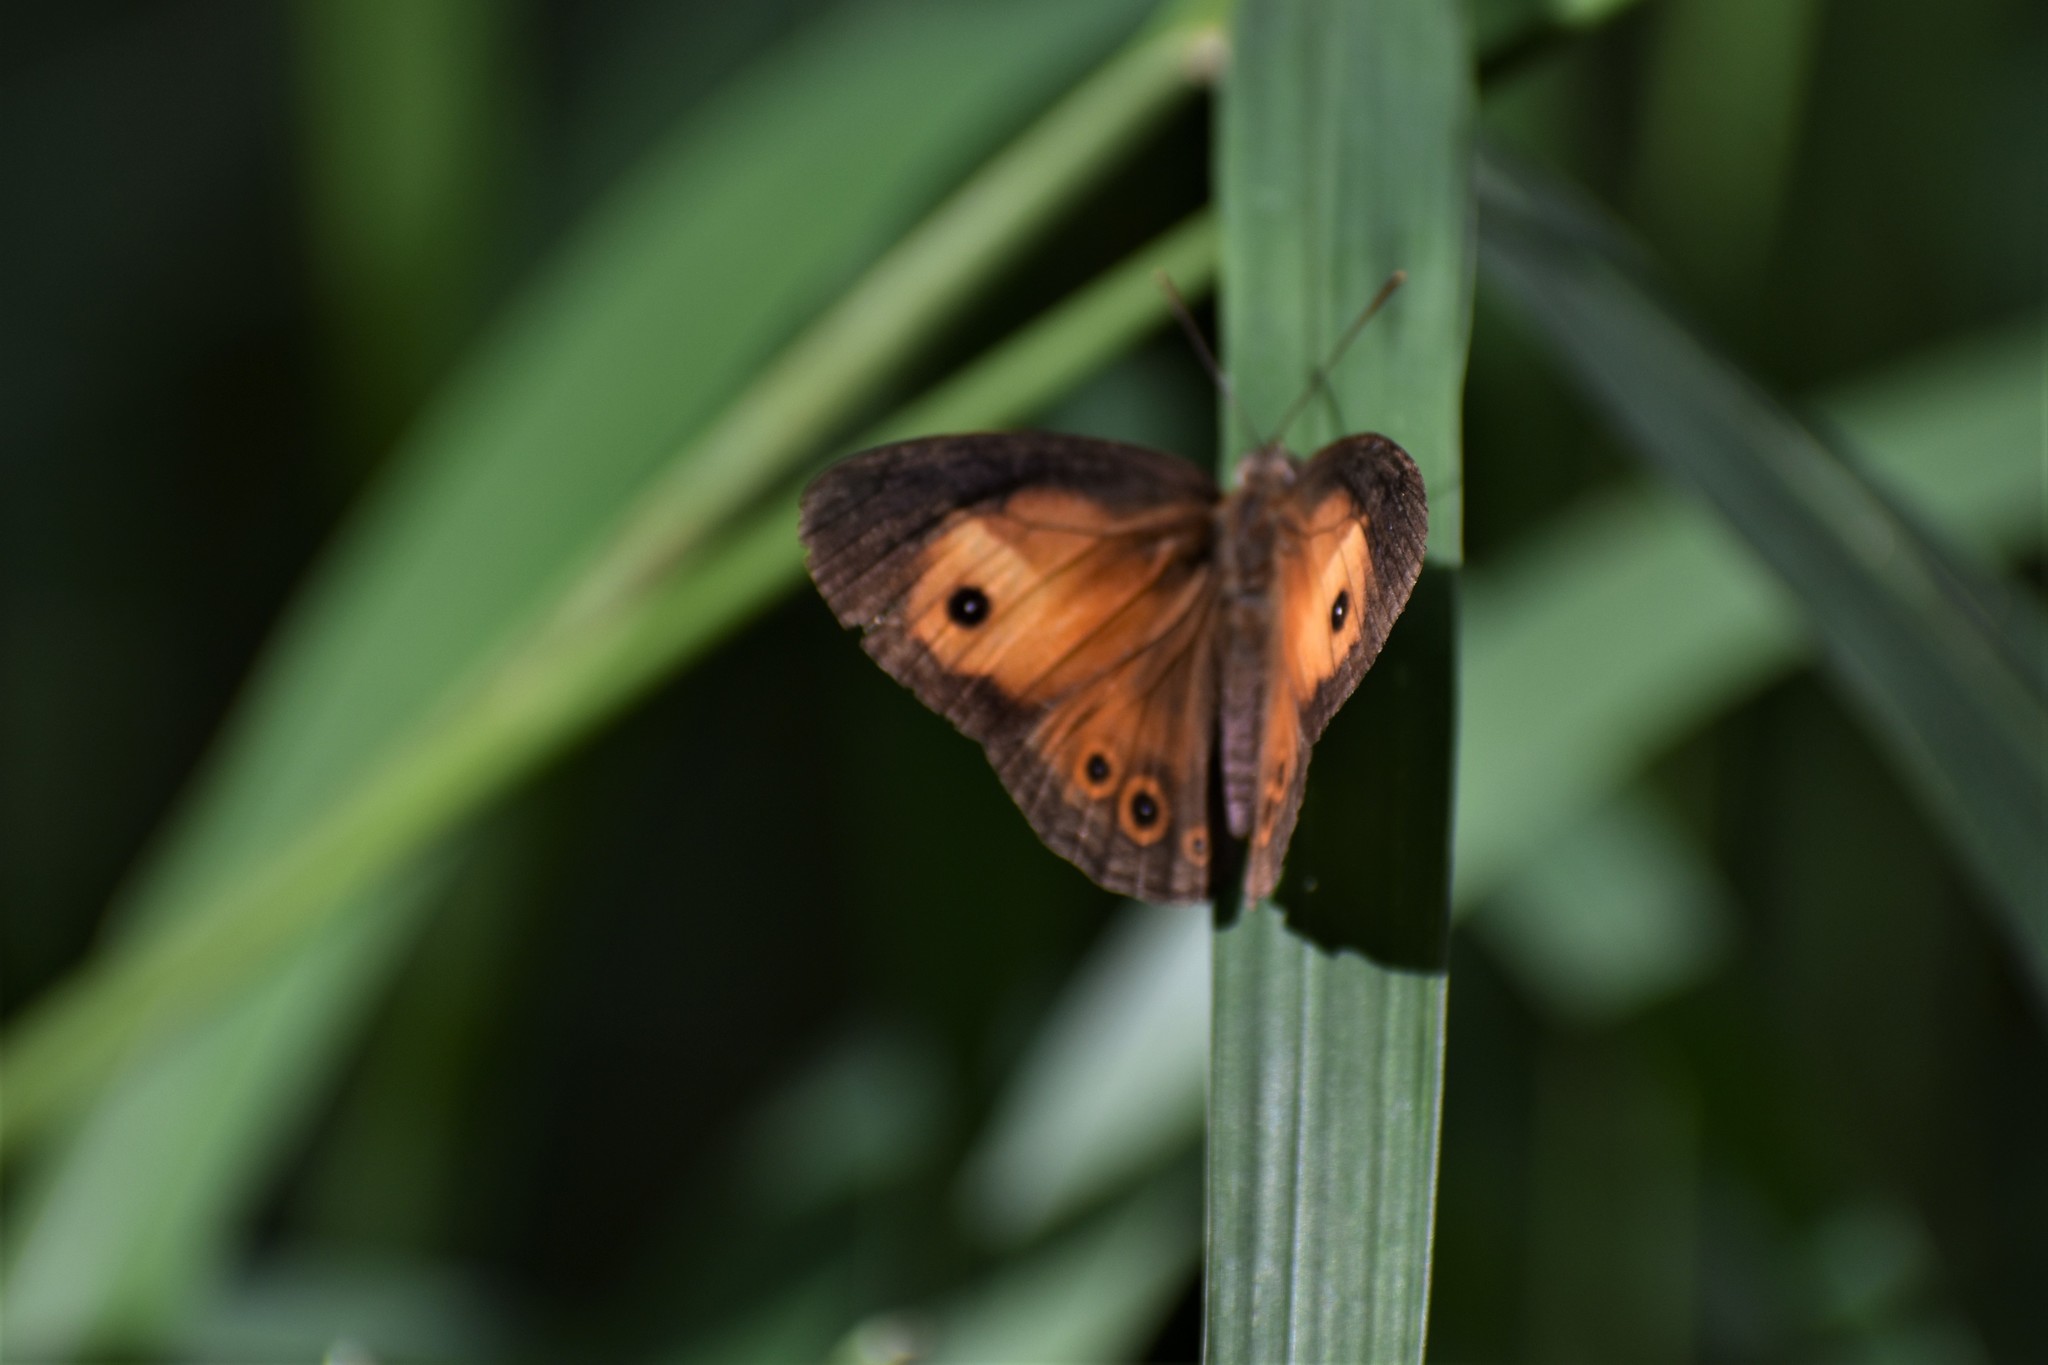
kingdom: Animalia
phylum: Arthropoda
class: Insecta
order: Lepidoptera
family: Nymphalidae
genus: Mycalesis
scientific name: Mycalesis terminus
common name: Orange bushbrown
